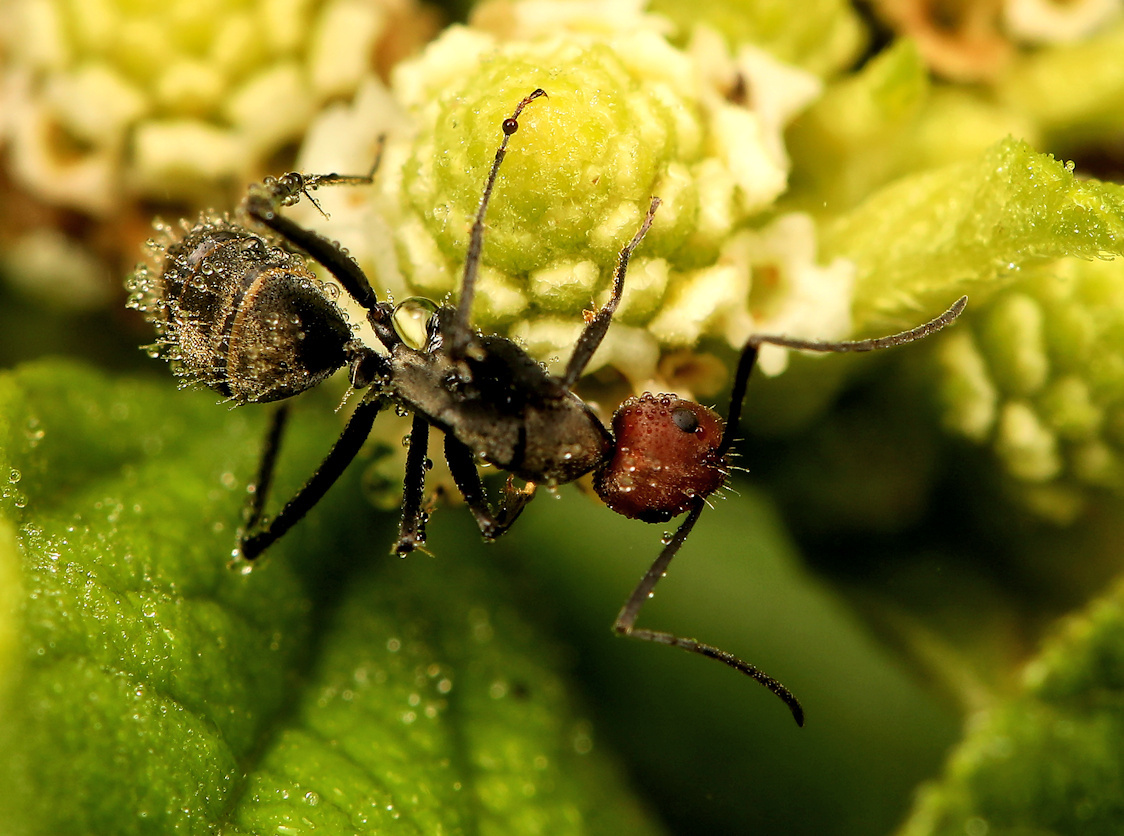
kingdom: Animalia
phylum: Arthropoda
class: Insecta
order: Hymenoptera
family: Formicidae
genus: Camponotus
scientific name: Camponotus rufoglaucus
